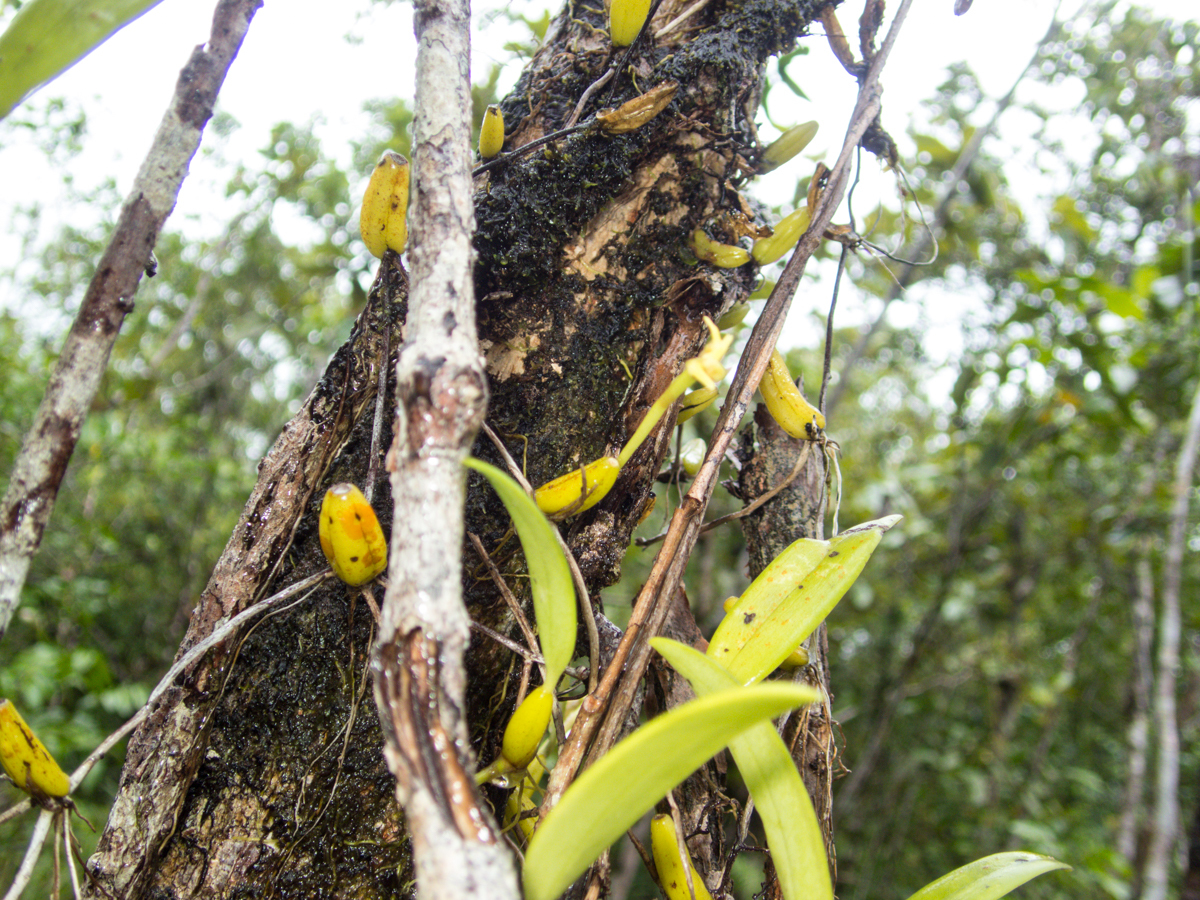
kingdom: Plantae
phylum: Tracheophyta
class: Liliopsida
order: Asparagales
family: Orchidaceae
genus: Bulbophyllum
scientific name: Bulbophyllum odoratissimum
